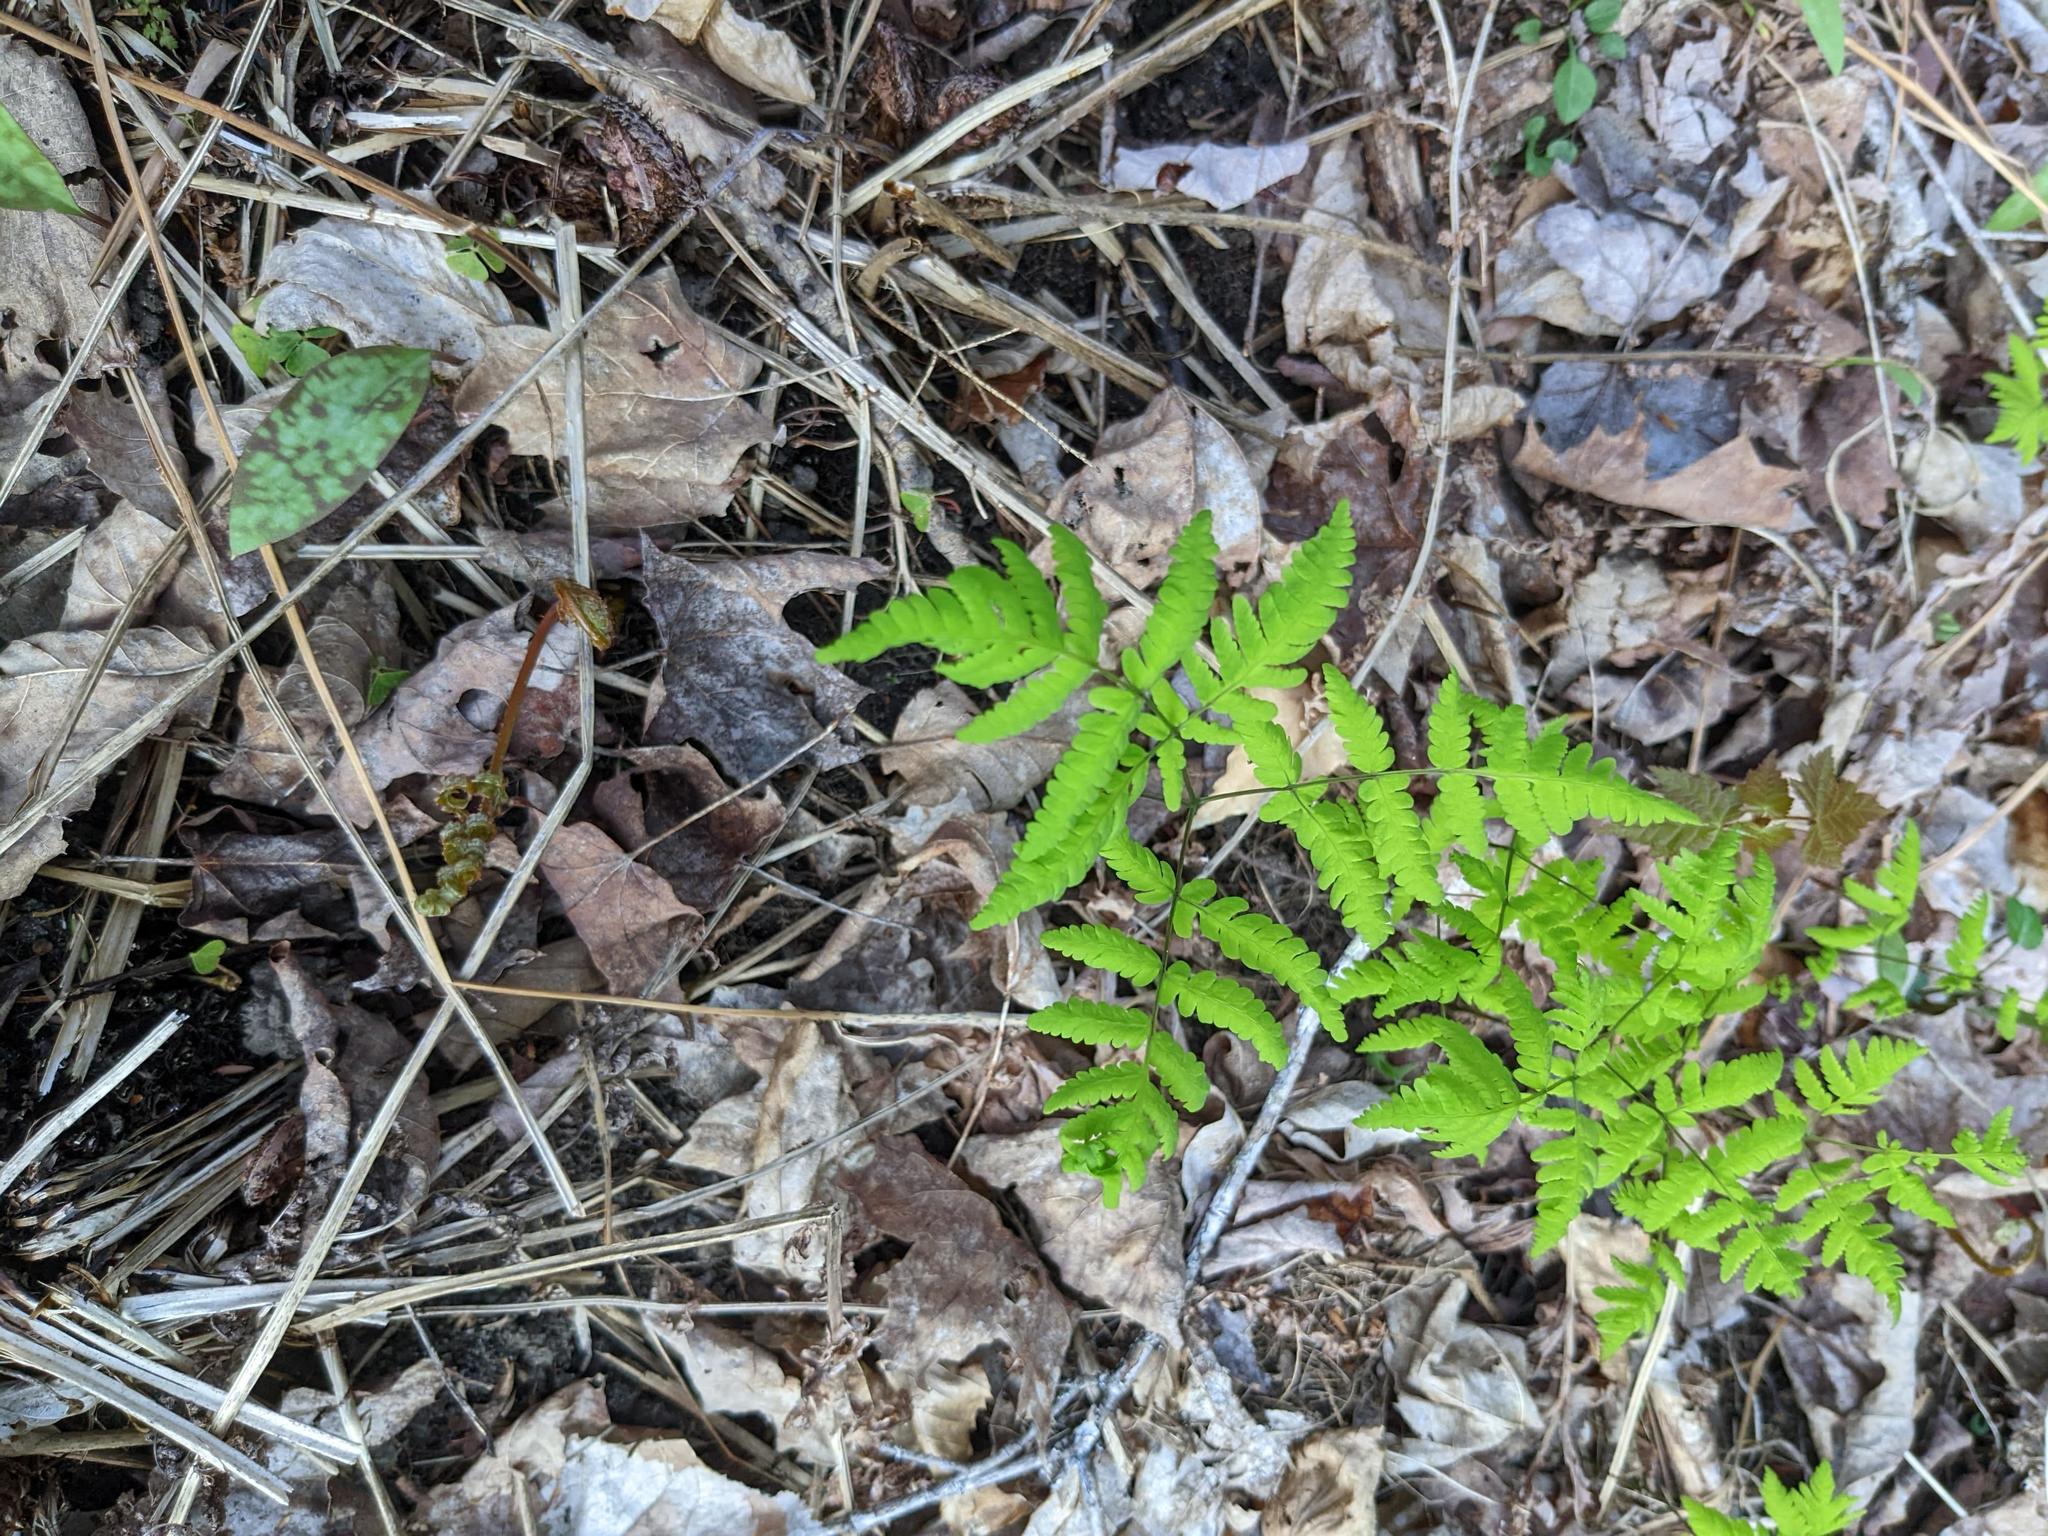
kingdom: Plantae
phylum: Tracheophyta
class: Polypodiopsida
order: Polypodiales
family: Cystopteridaceae
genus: Gymnocarpium
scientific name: Gymnocarpium dryopteris
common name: Oak fern
